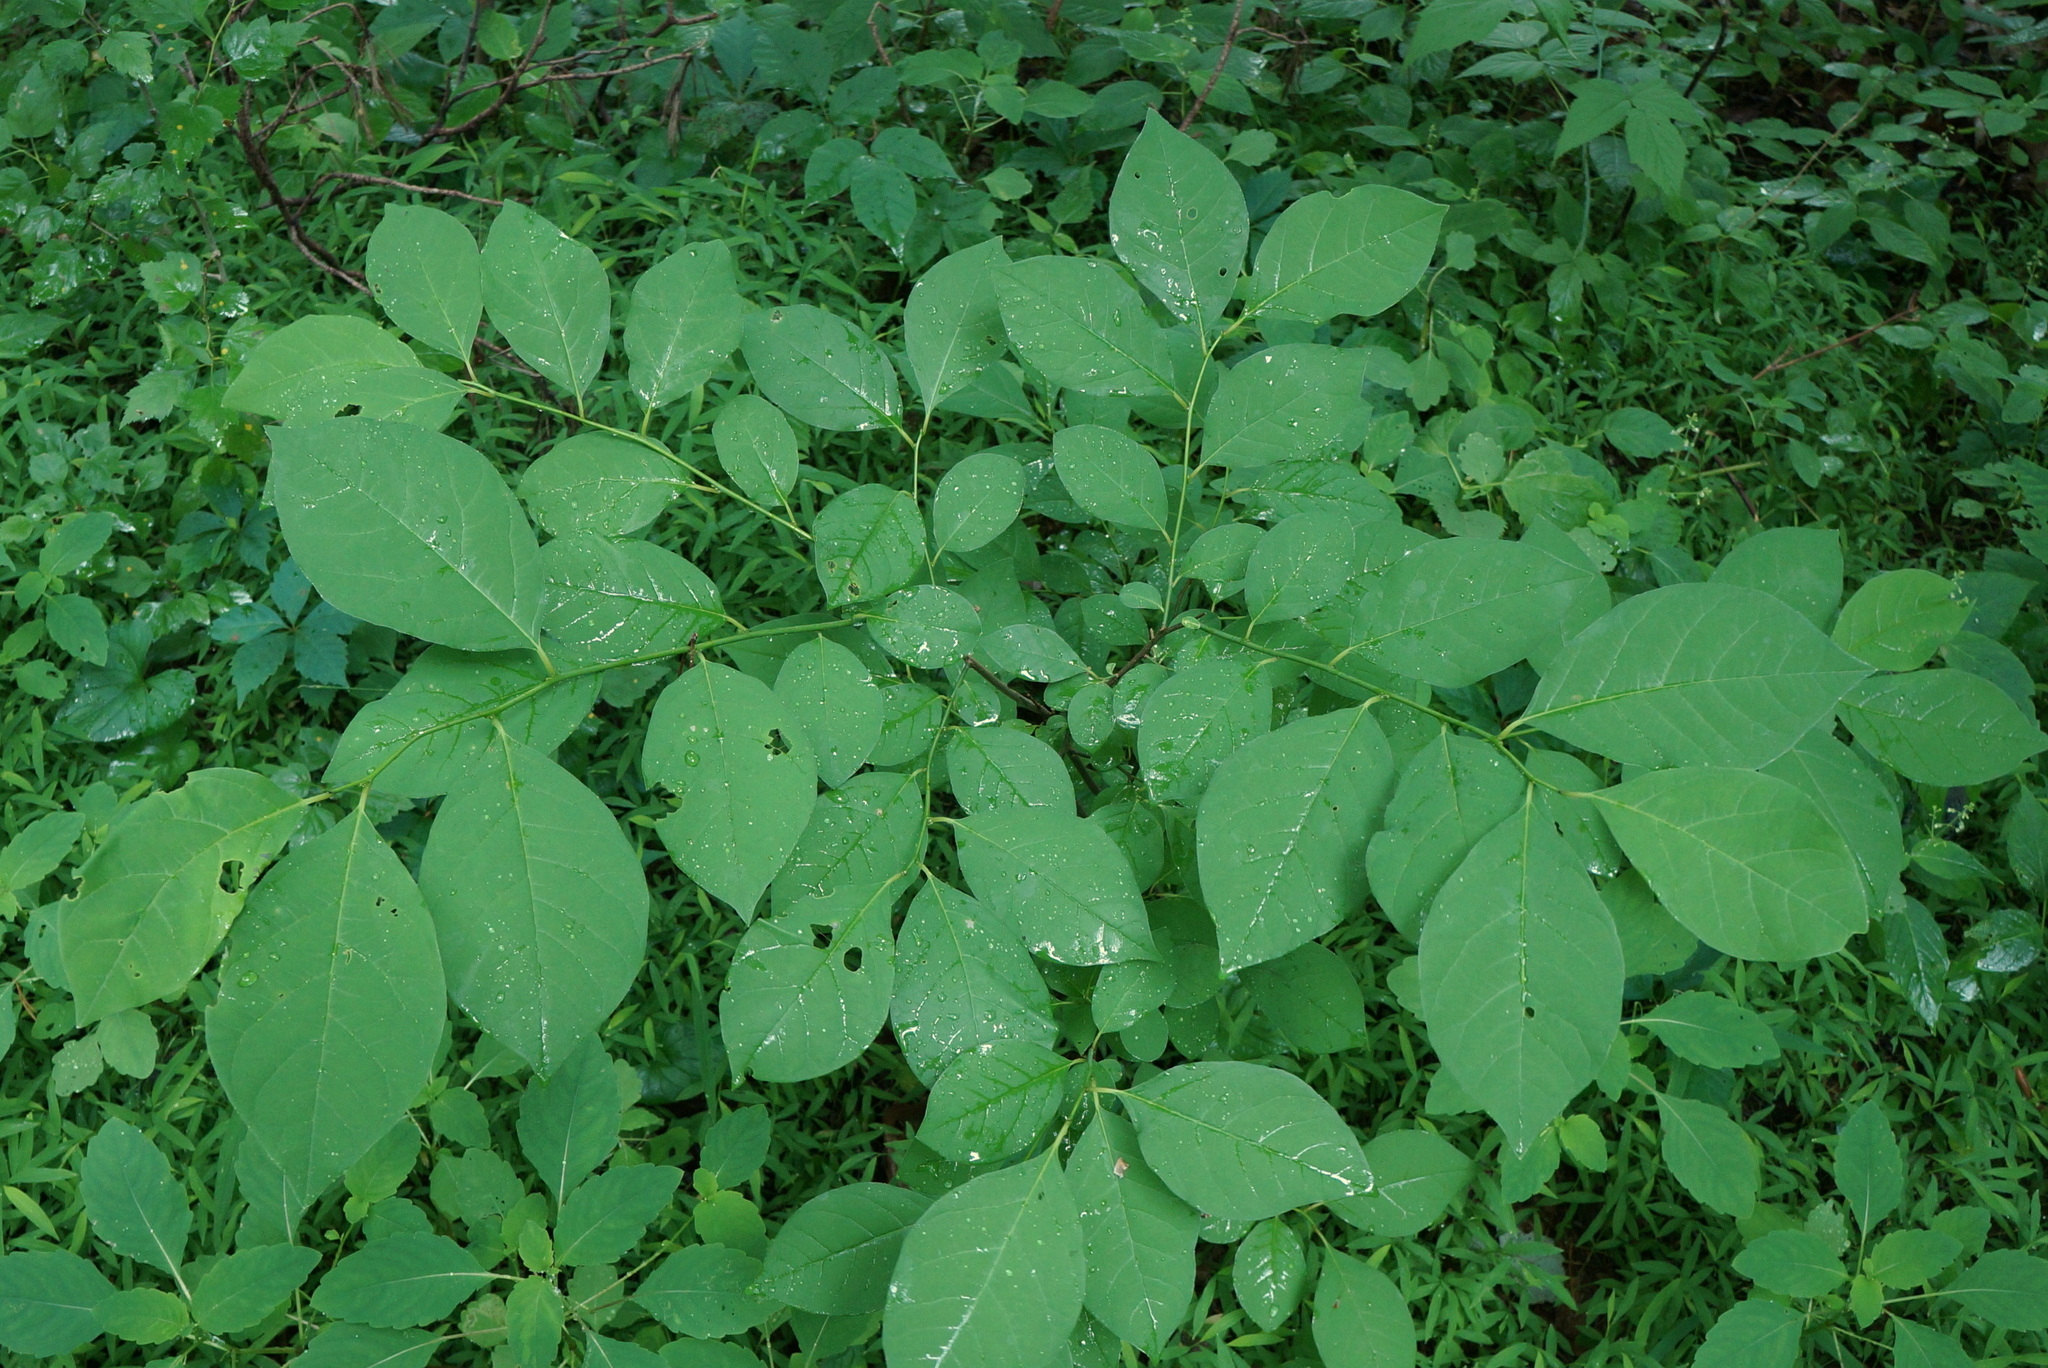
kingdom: Plantae
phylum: Tracheophyta
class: Magnoliopsida
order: Laurales
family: Lauraceae
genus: Lindera
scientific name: Lindera benzoin
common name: Spicebush
